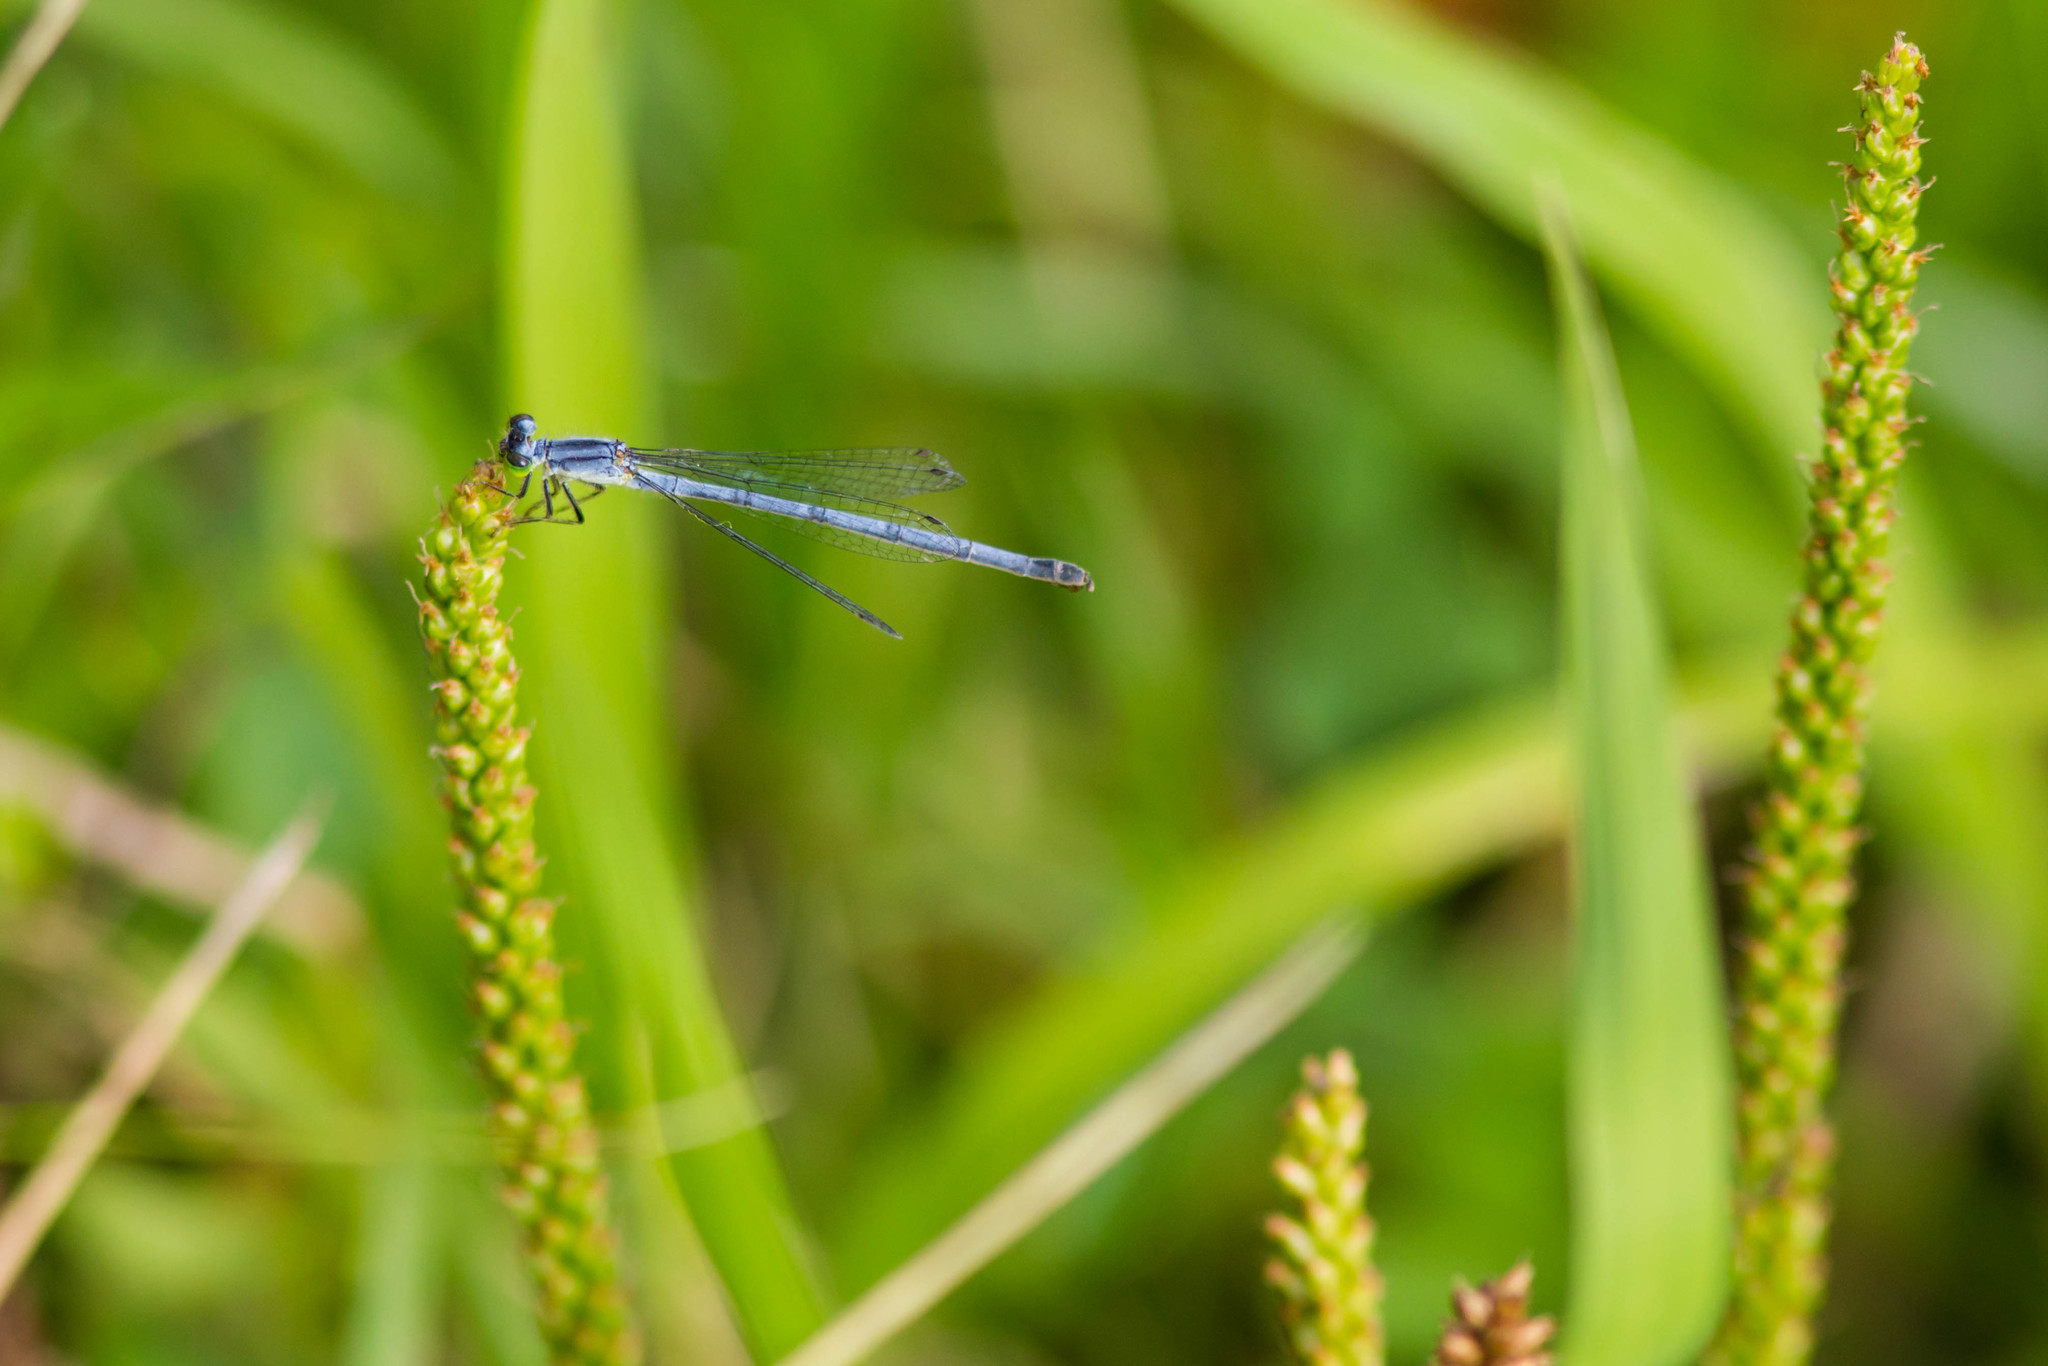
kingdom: Animalia
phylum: Arthropoda
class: Insecta
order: Odonata
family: Coenagrionidae
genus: Ischnura
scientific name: Ischnura verticalis
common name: Eastern forktail
